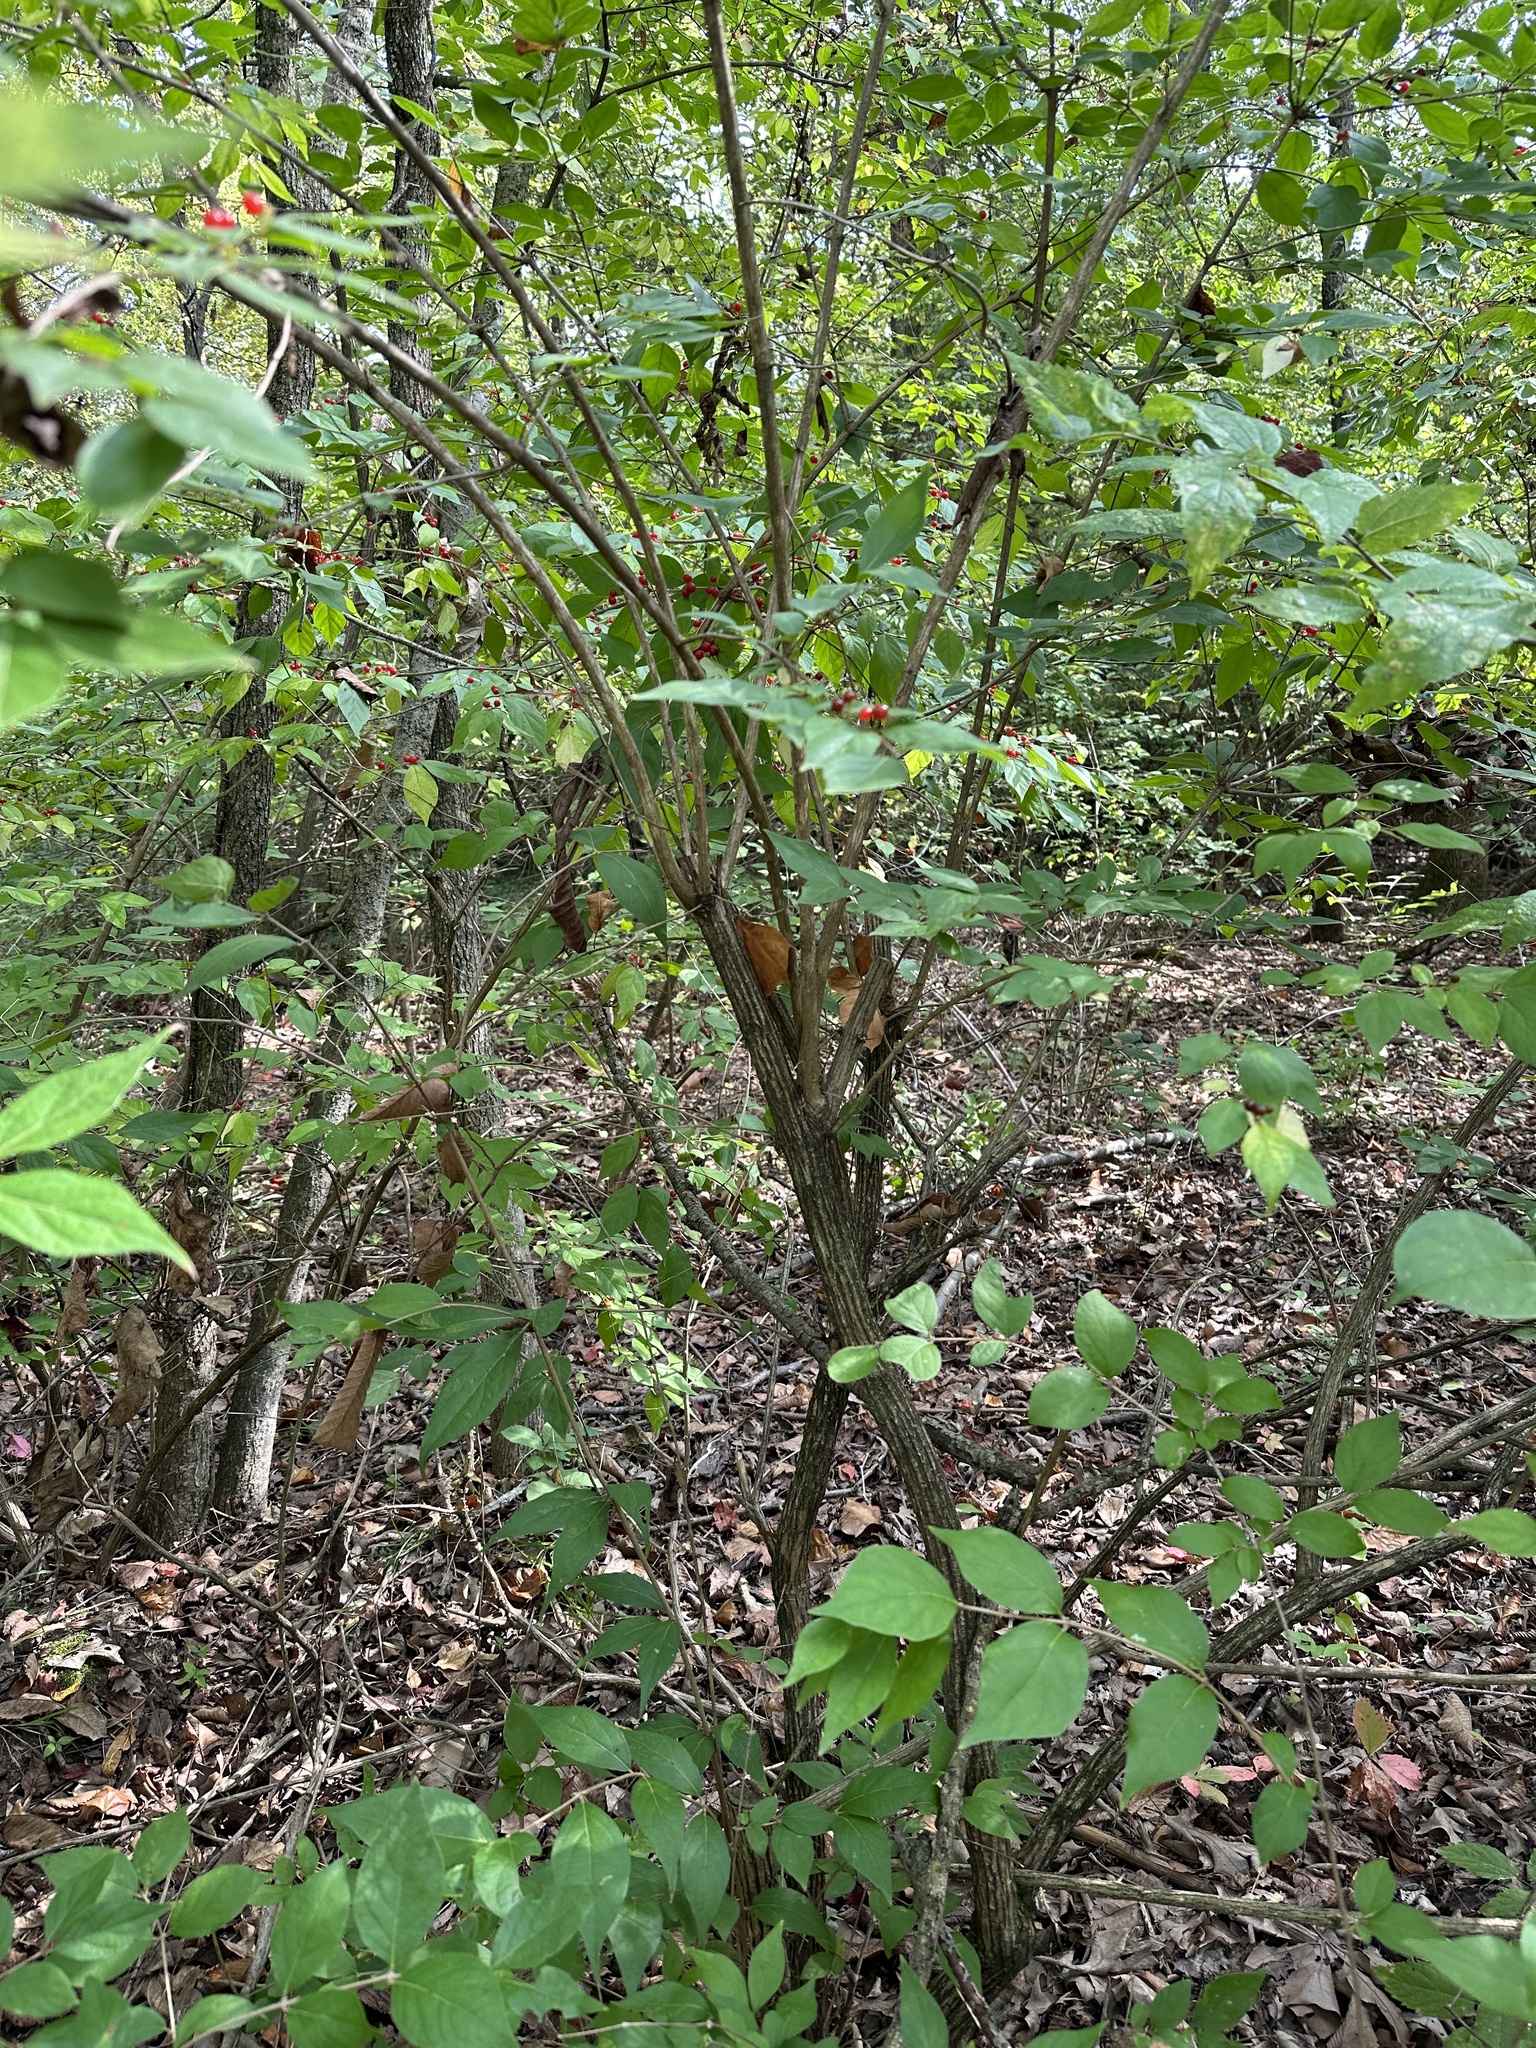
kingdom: Plantae
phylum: Tracheophyta
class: Magnoliopsida
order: Dipsacales
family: Caprifoliaceae
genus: Lonicera
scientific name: Lonicera maackii
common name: Amur honeysuckle
